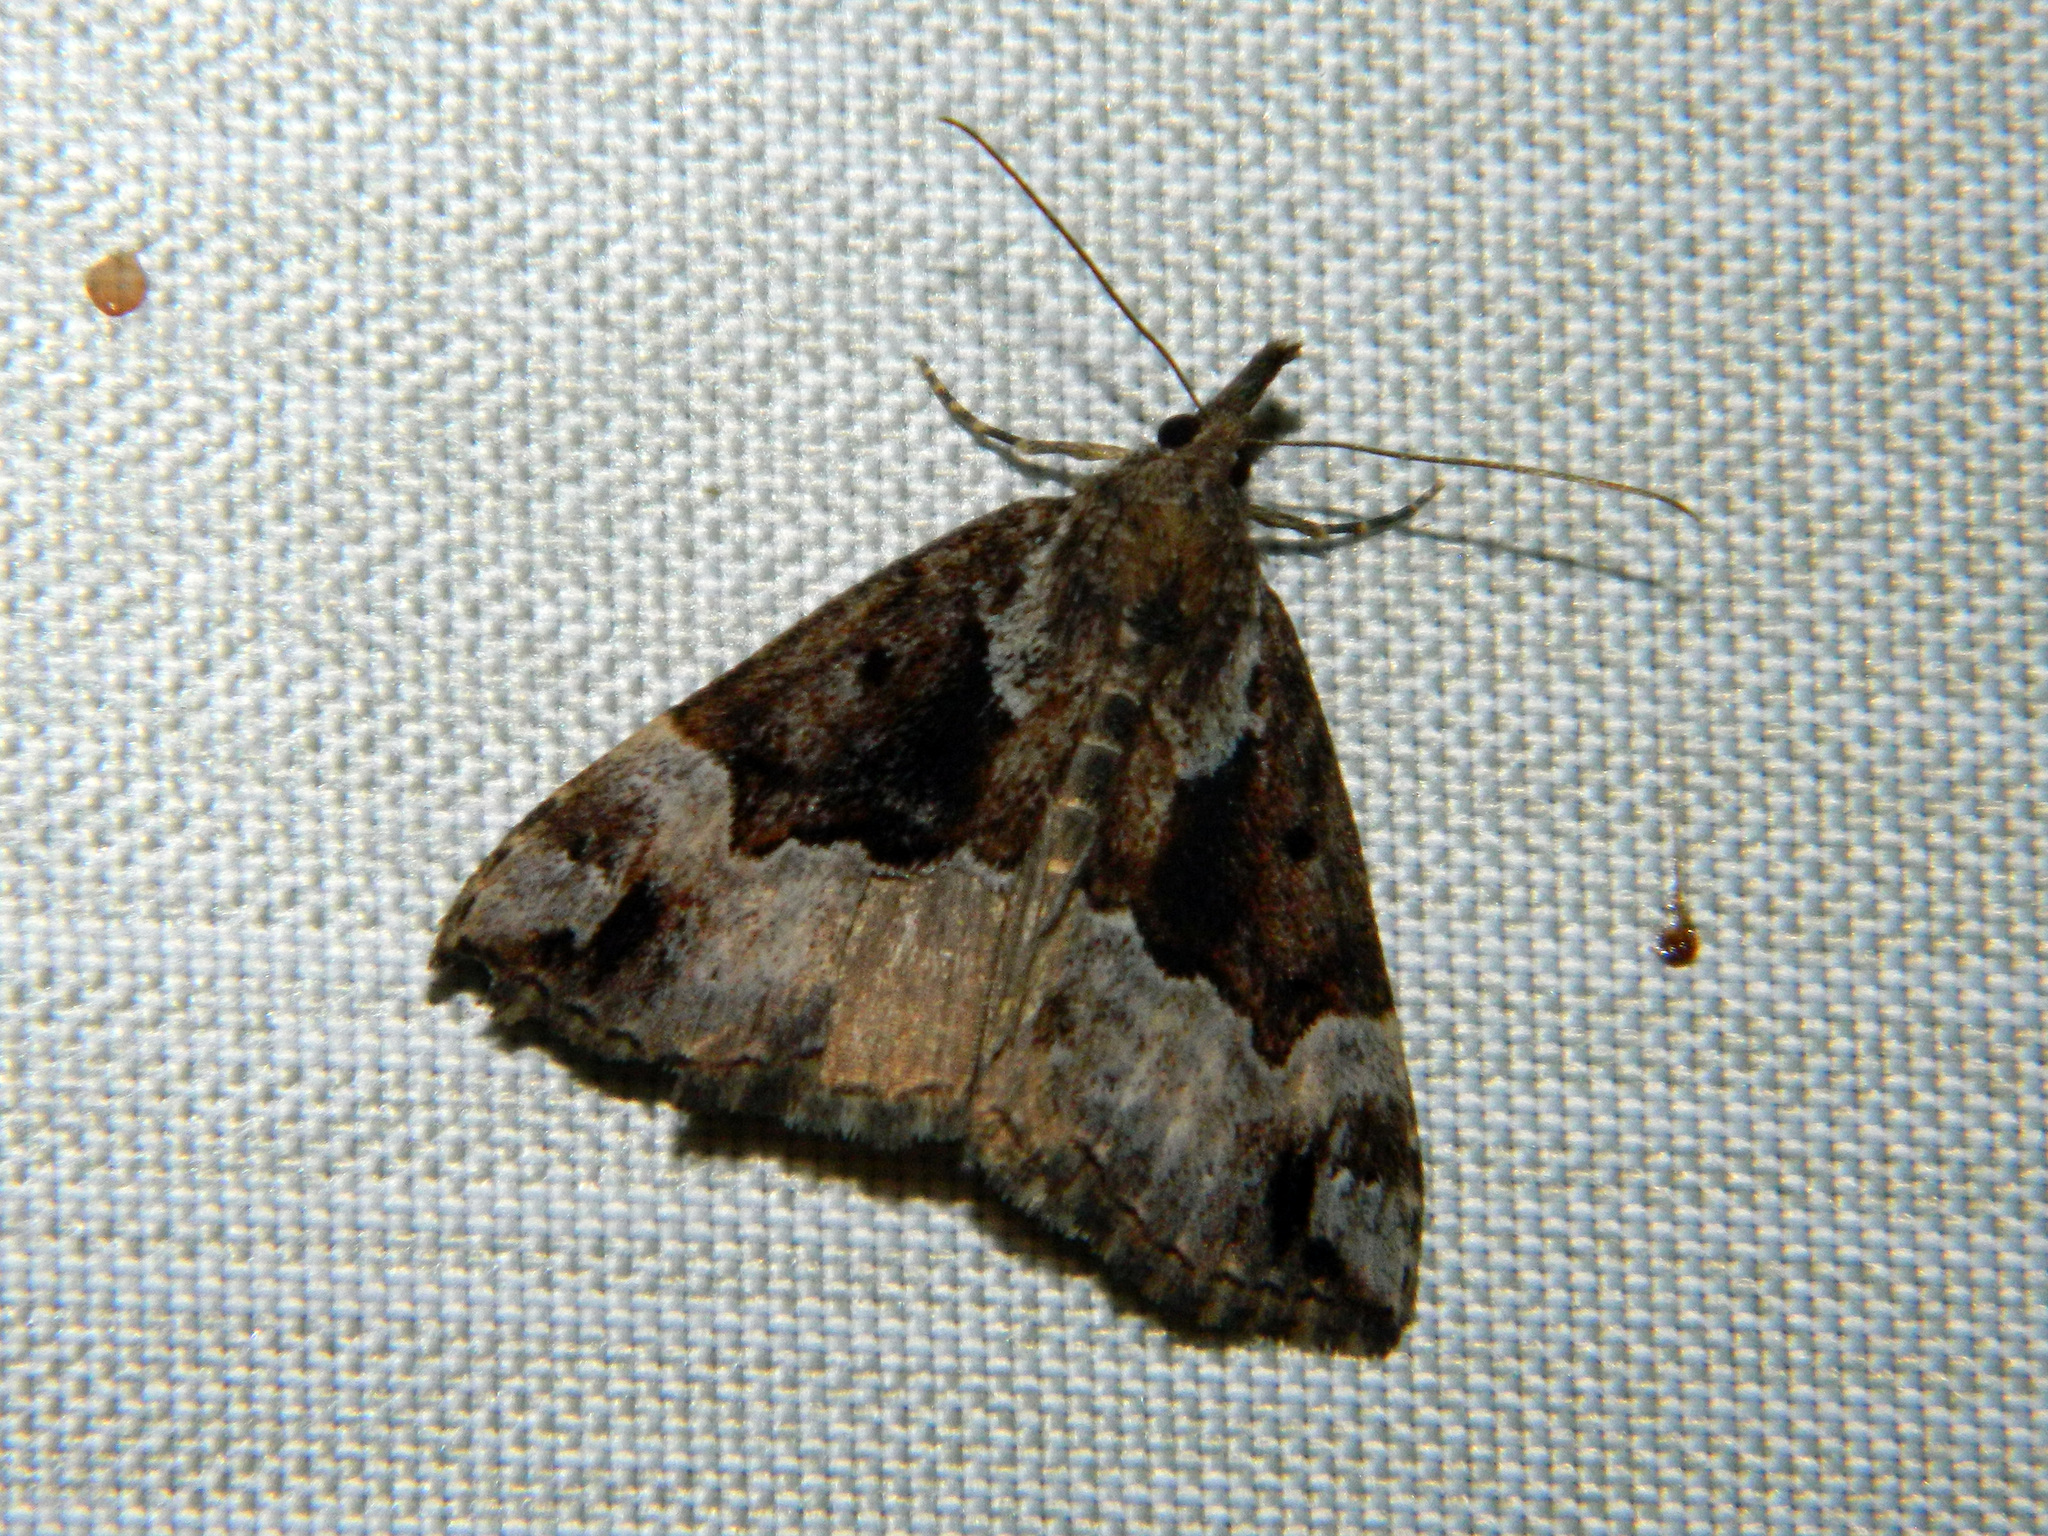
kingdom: Animalia
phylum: Arthropoda
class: Insecta
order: Lepidoptera
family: Erebidae
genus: Hypena
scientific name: Hypena palparia
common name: Mottled bomolocha moth
